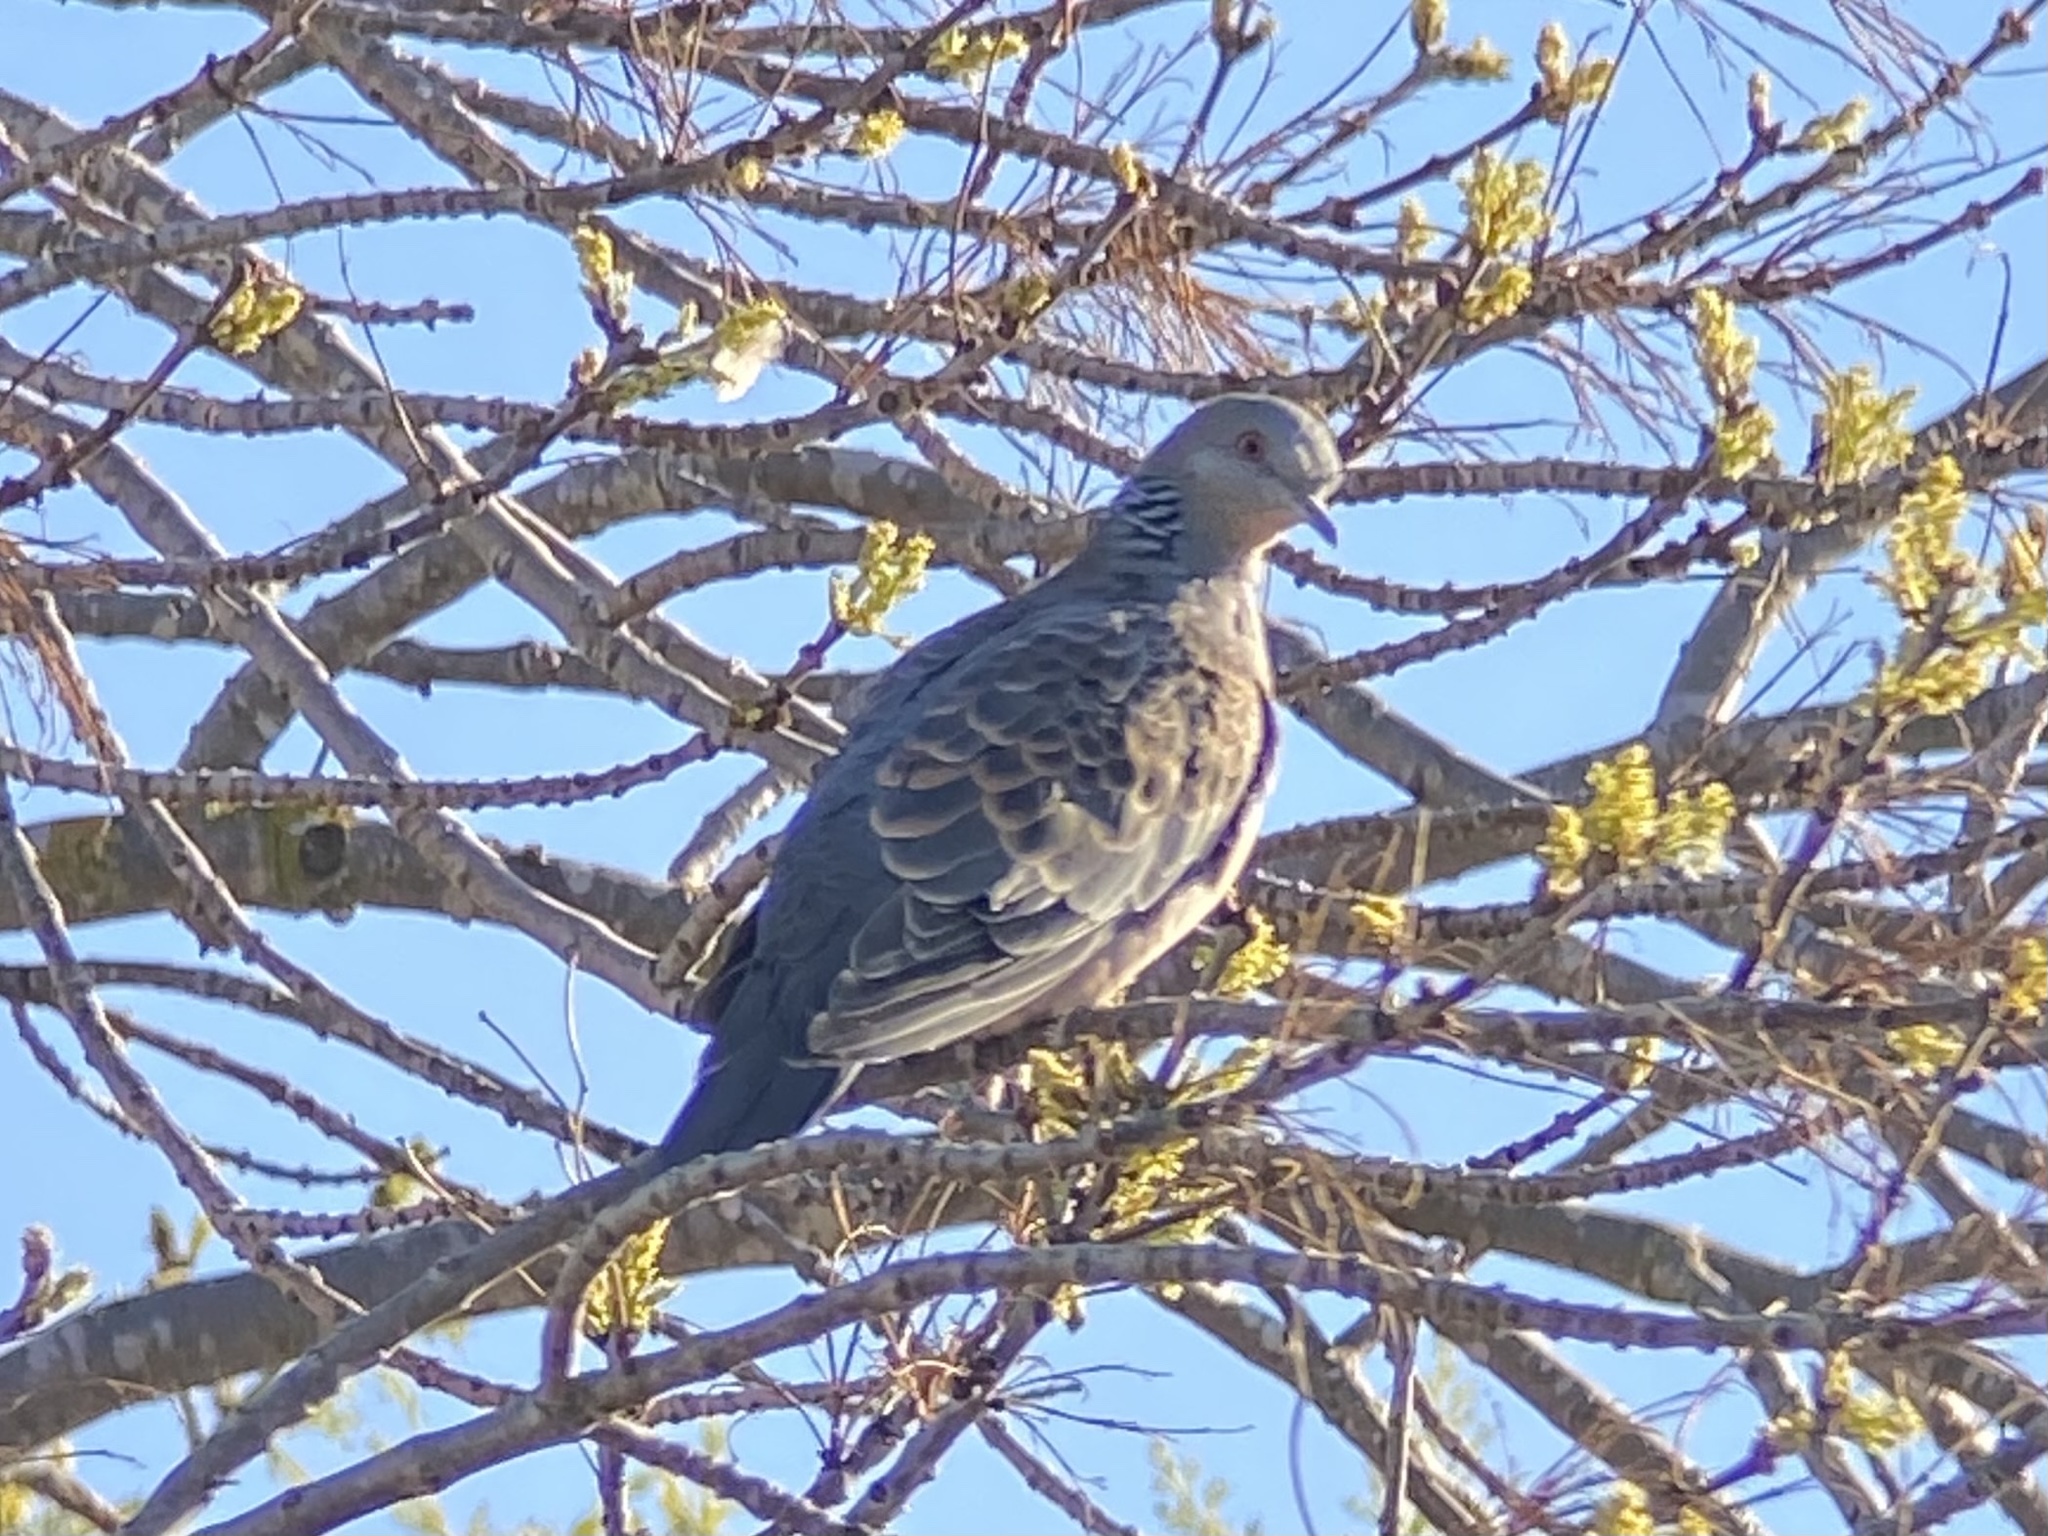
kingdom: Animalia
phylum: Chordata
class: Aves
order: Columbiformes
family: Columbidae
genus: Streptopelia
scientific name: Streptopelia orientalis
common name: Oriental turtle dove
